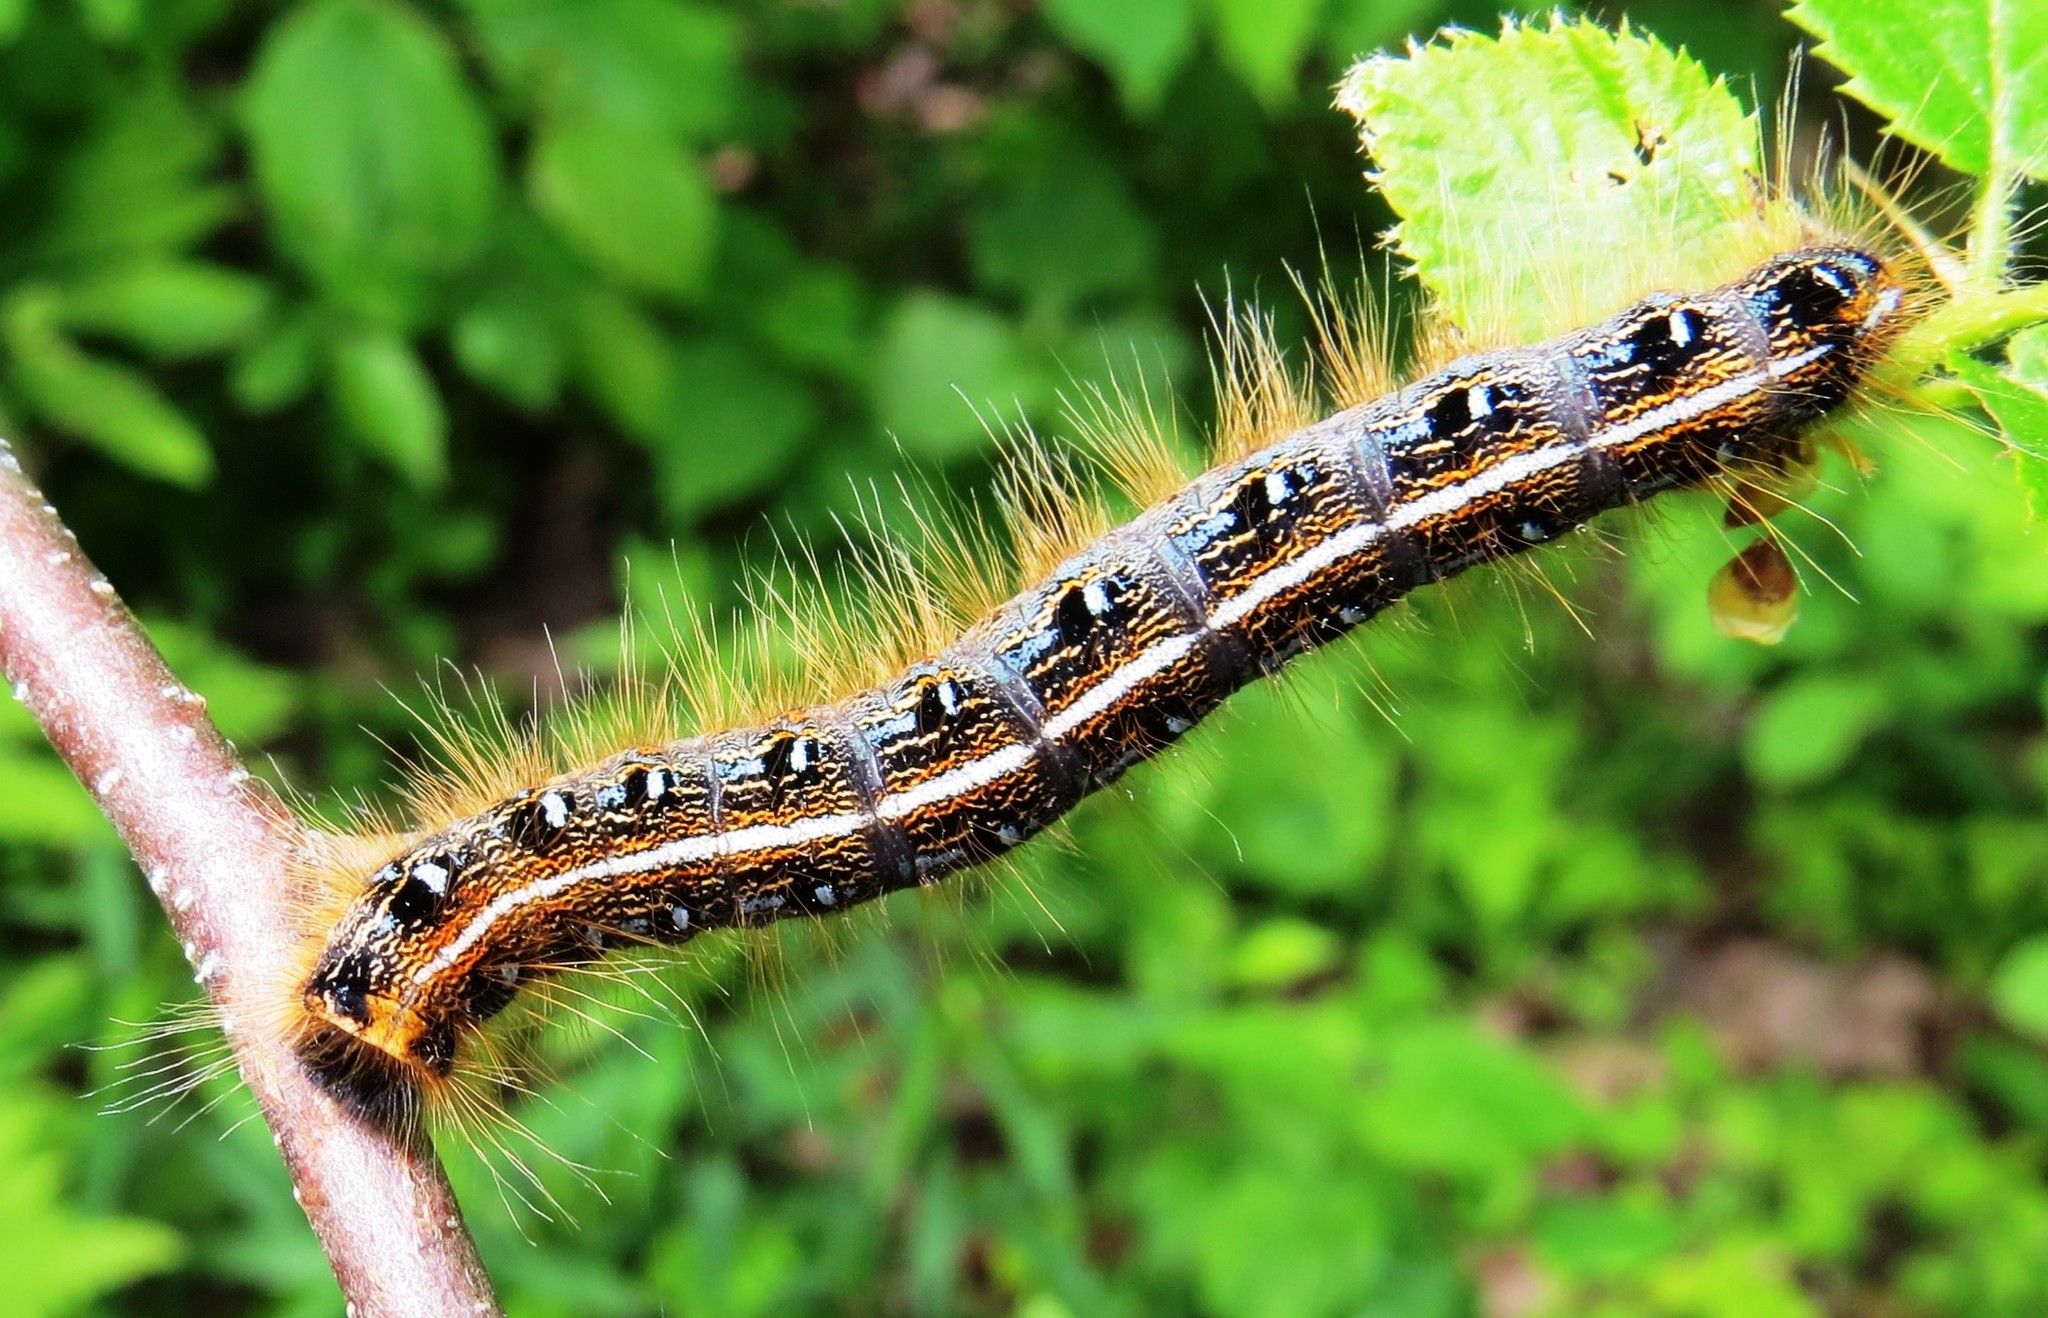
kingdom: Animalia
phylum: Arthropoda
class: Insecta
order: Lepidoptera
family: Lasiocampidae
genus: Malacosoma
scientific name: Malacosoma americana
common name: Eastern tent caterpillar moth
